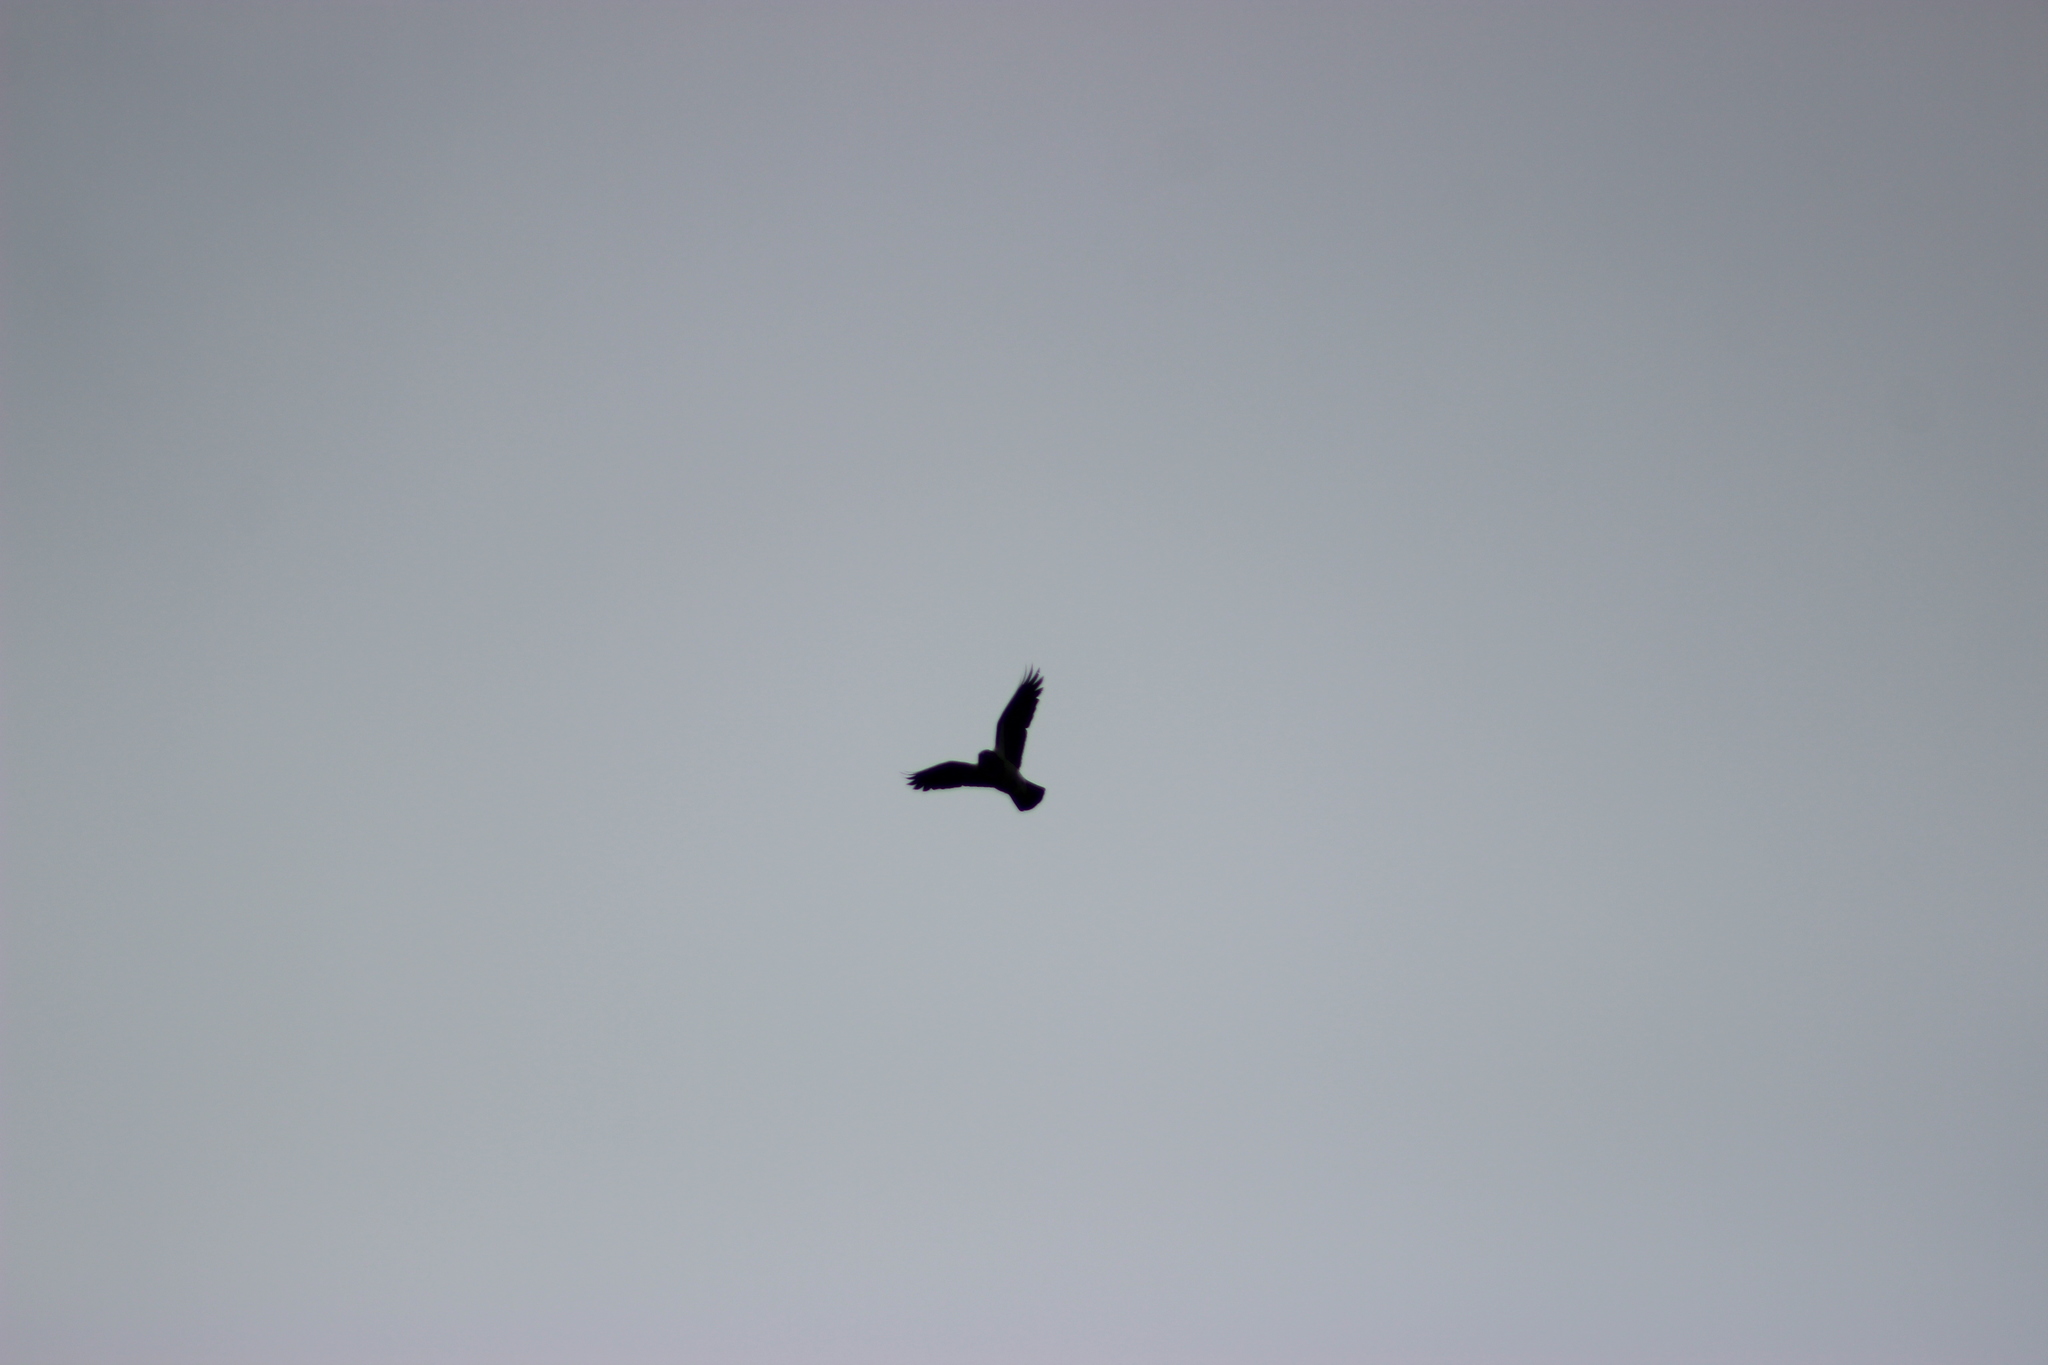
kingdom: Animalia
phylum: Chordata
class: Aves
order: Passeriformes
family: Corvidae
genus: Corvus
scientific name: Corvus cornix
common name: Hooded crow
